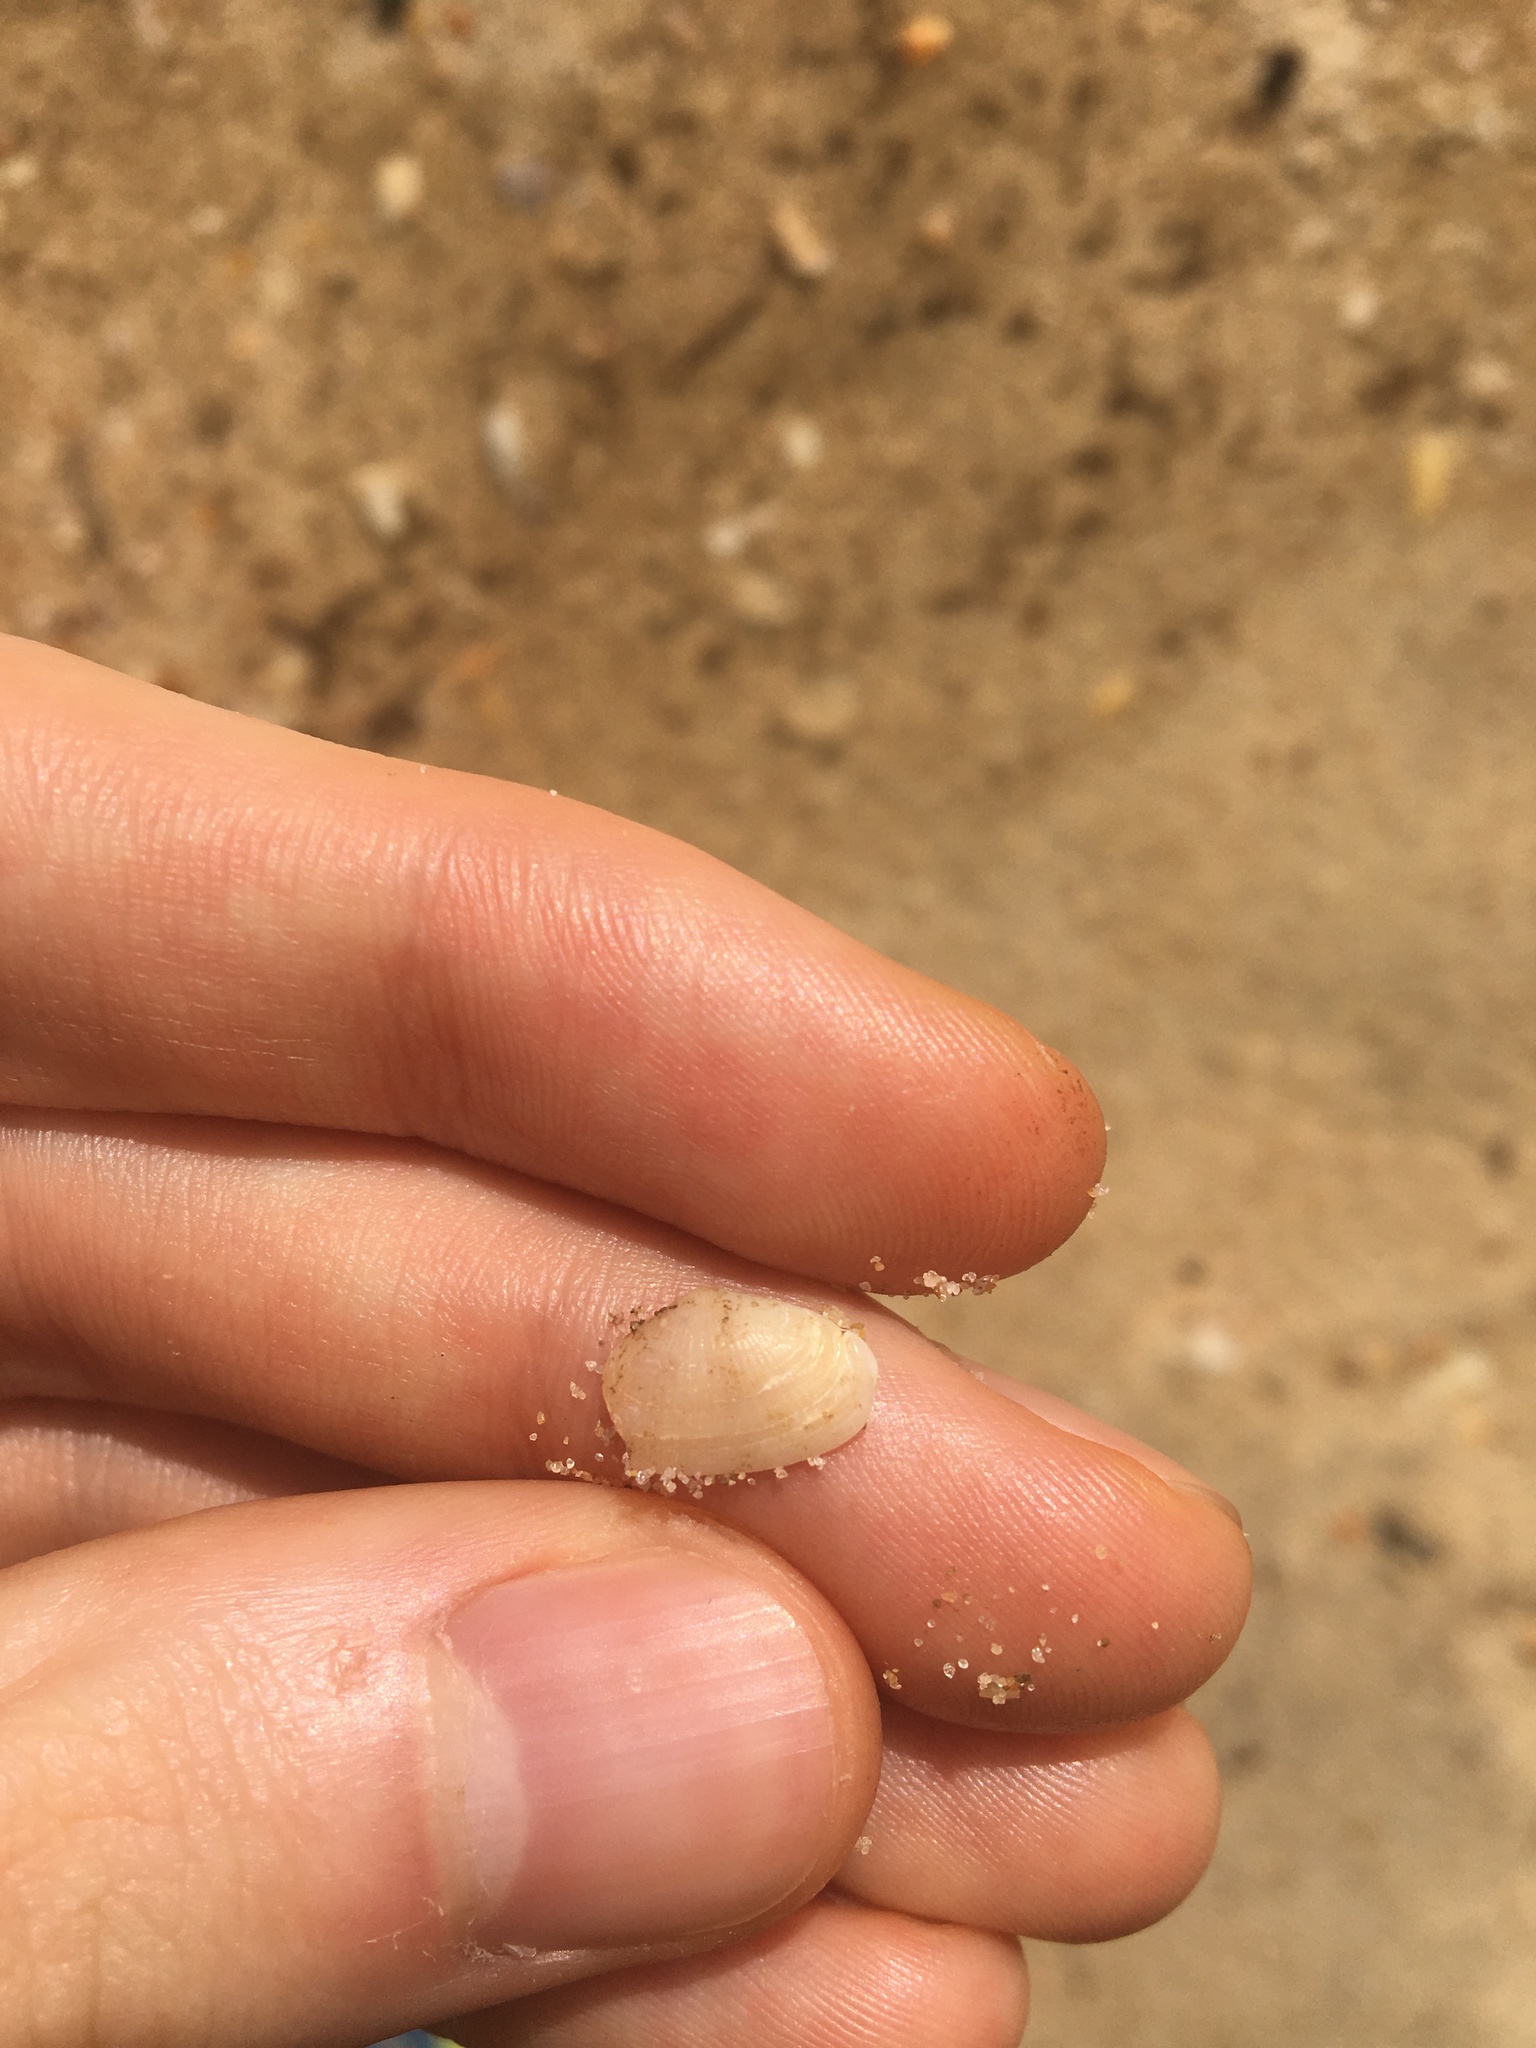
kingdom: Animalia
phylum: Mollusca
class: Bivalvia
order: Venerida
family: Hemidonacidae
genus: Hemidonax
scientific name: Hemidonax dactylus
